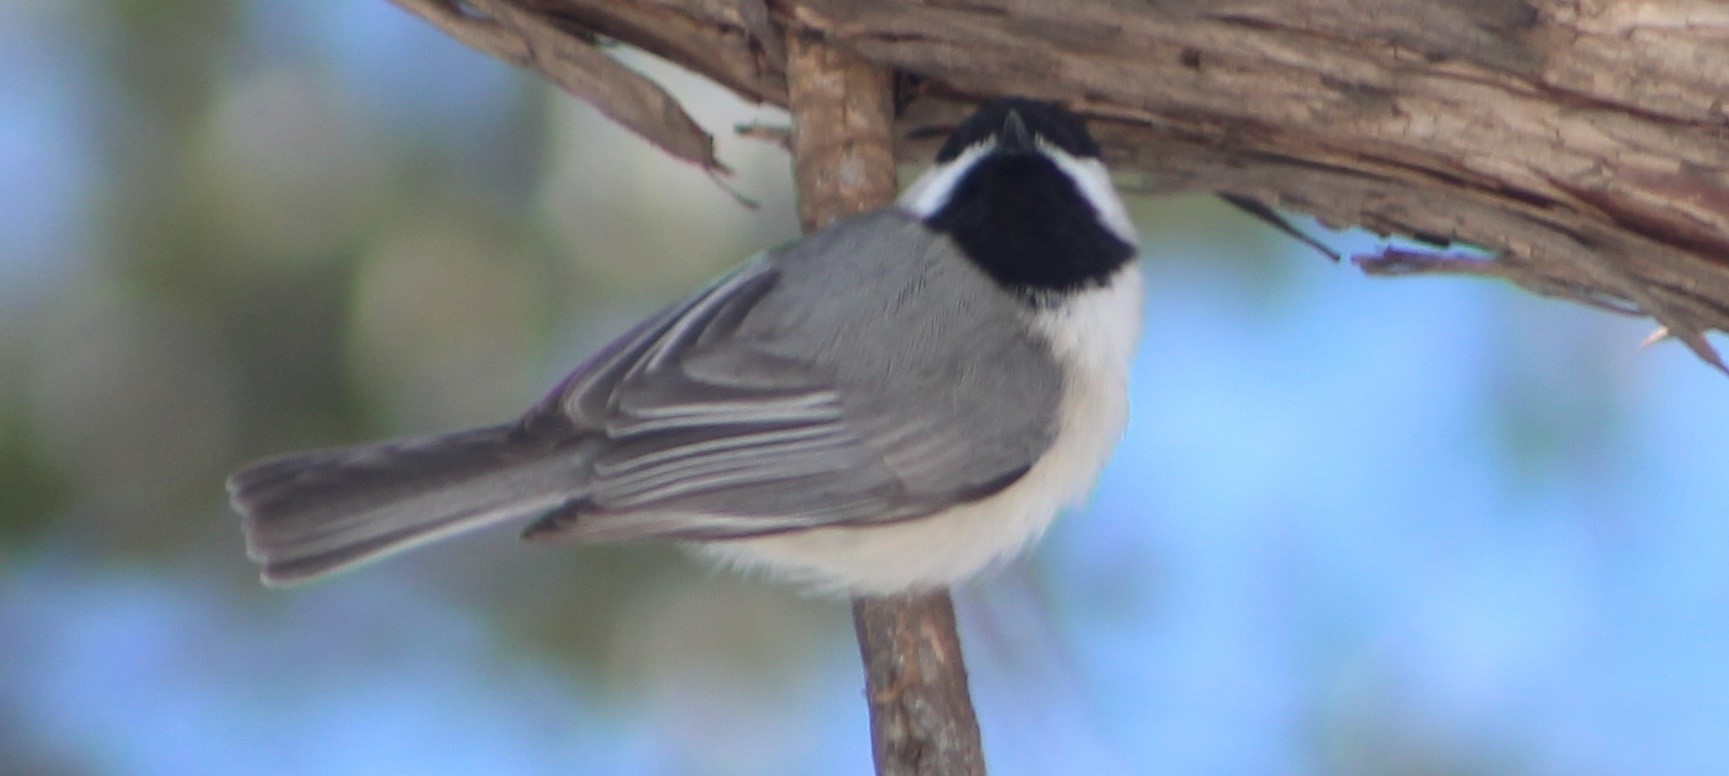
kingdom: Animalia
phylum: Chordata
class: Aves
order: Passeriformes
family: Paridae
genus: Poecile
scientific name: Poecile carolinensis
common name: Carolina chickadee
